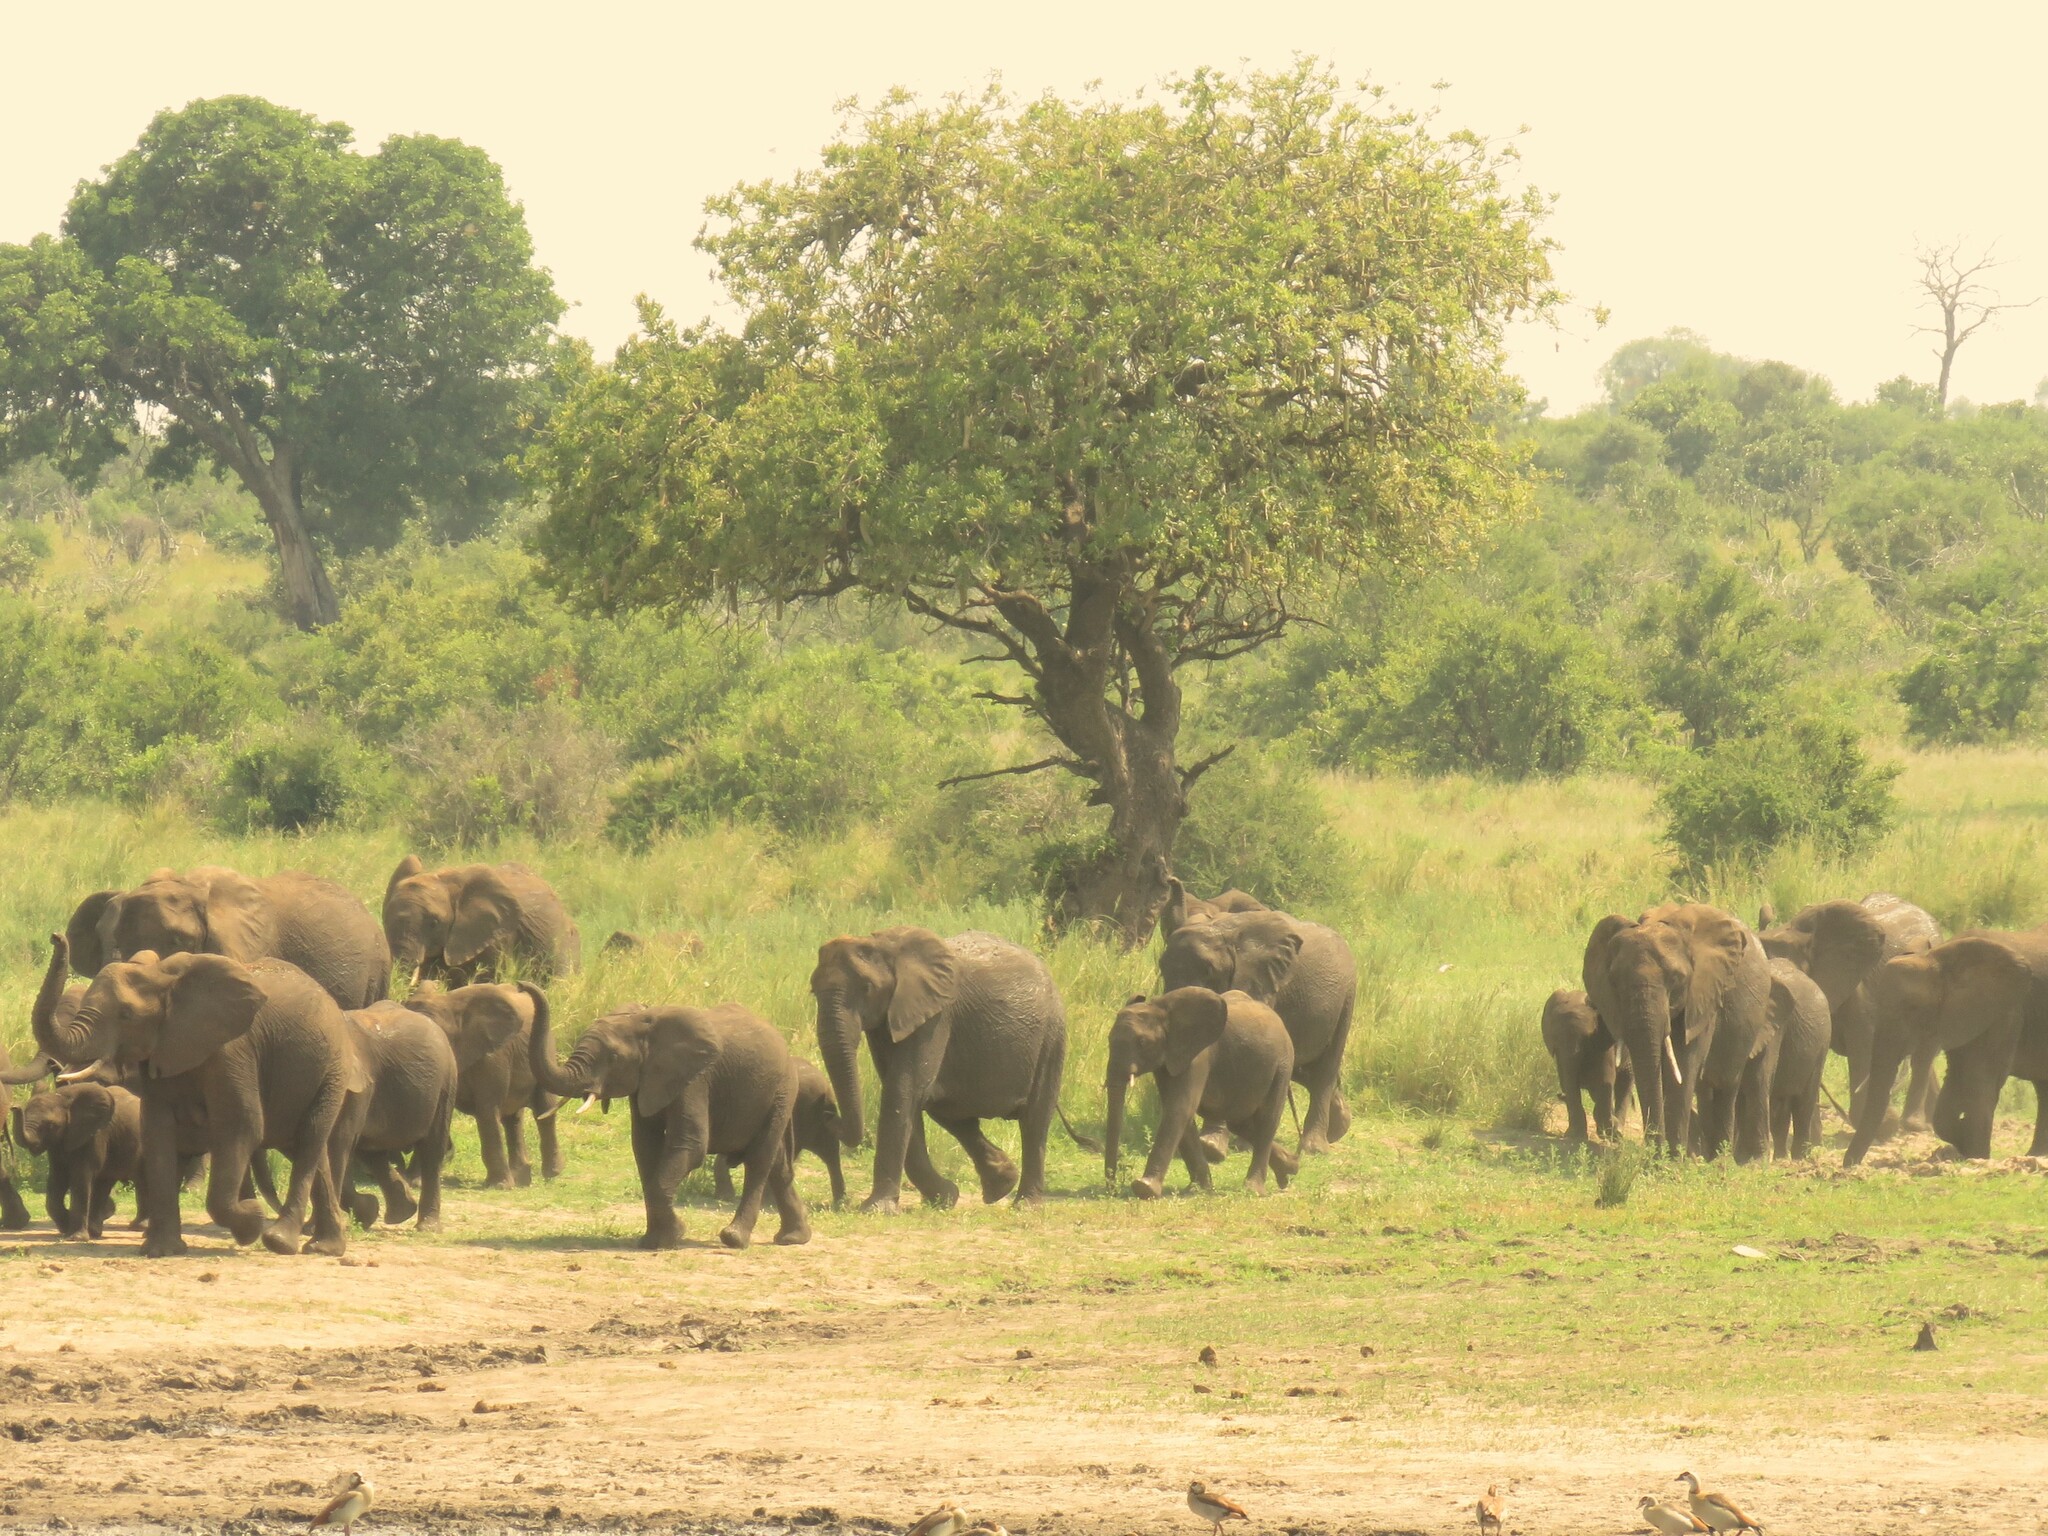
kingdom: Animalia
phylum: Chordata
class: Mammalia
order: Proboscidea
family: Elephantidae
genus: Loxodonta
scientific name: Loxodonta africana
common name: African elephant
